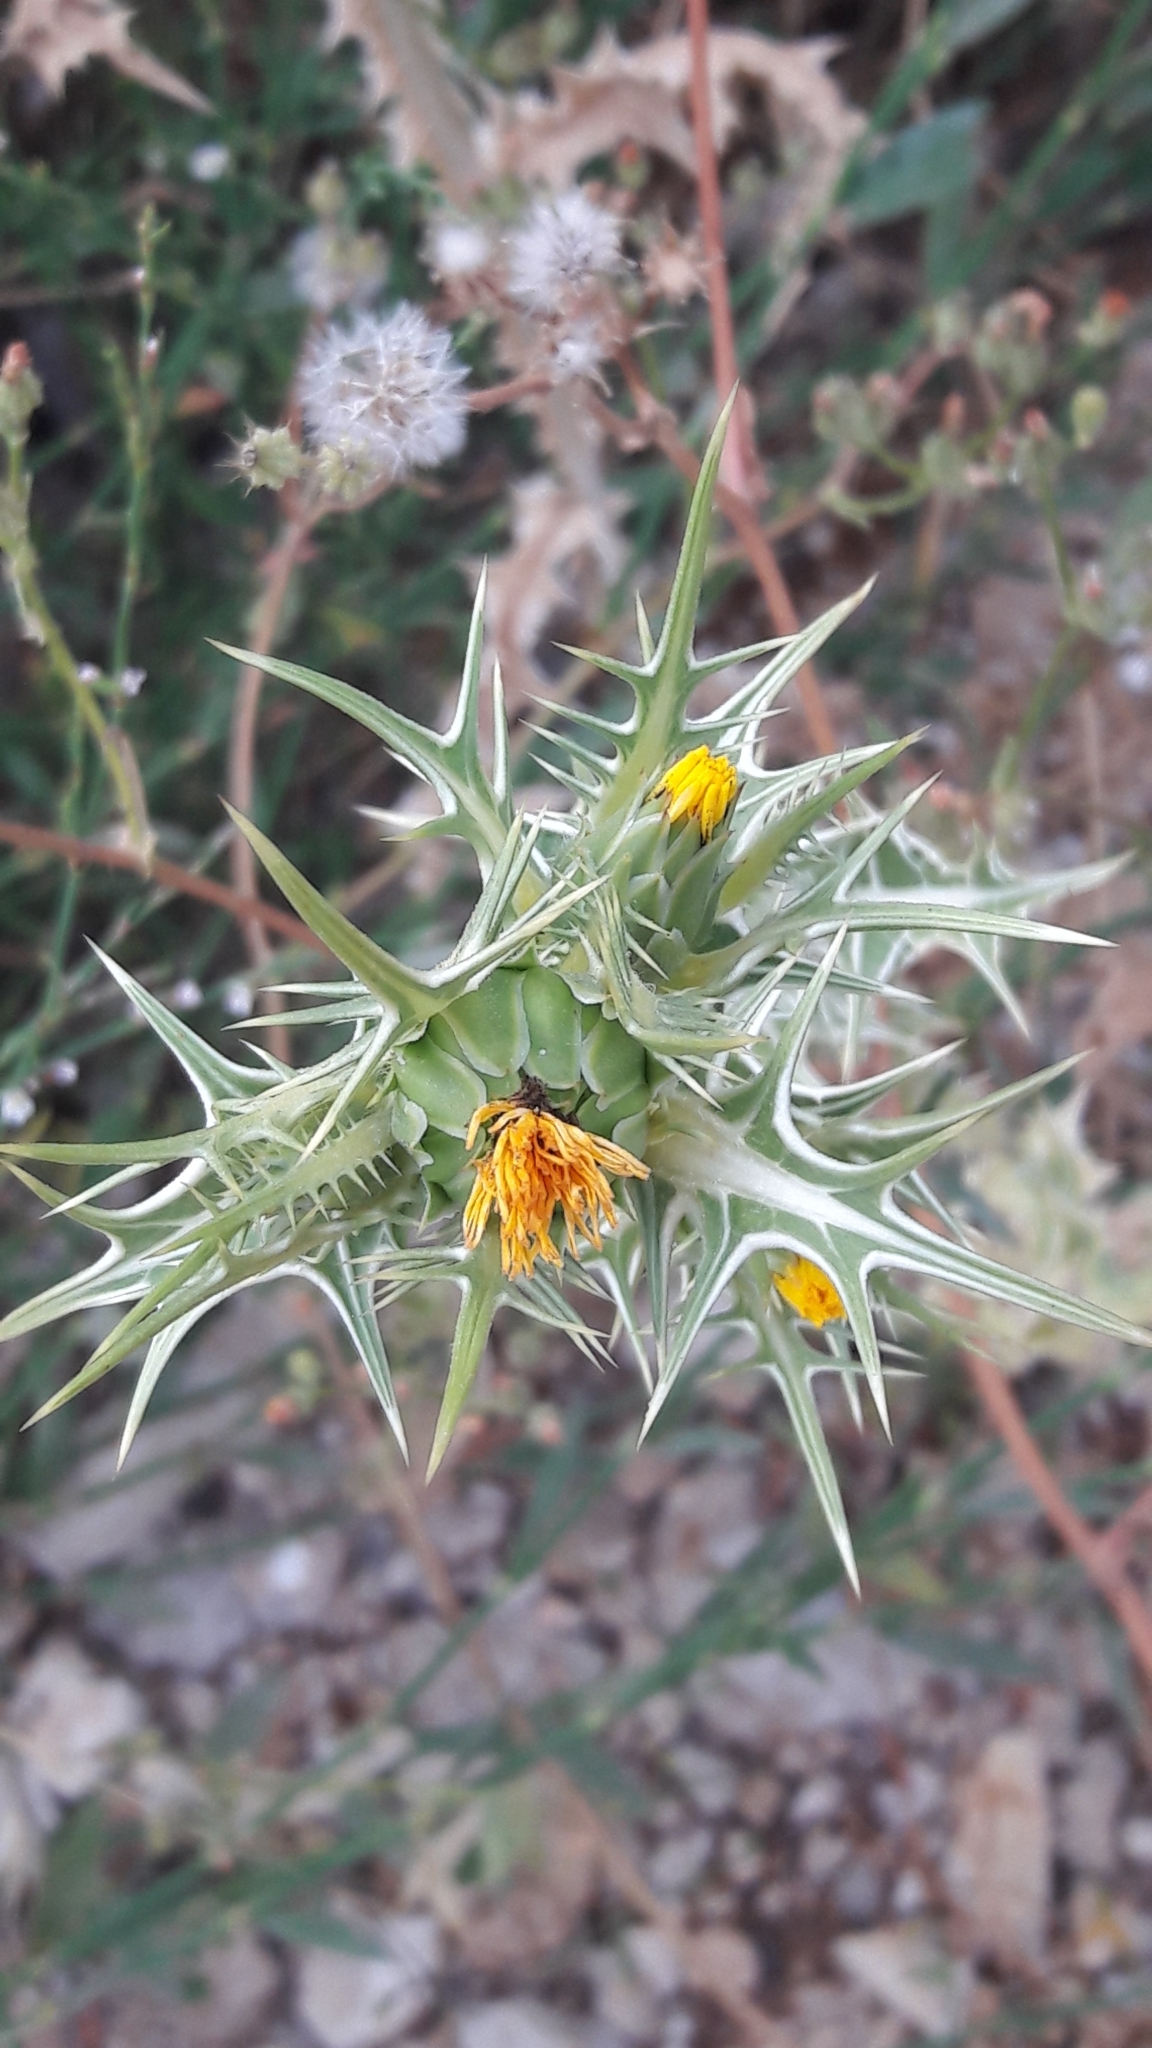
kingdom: Plantae
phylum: Tracheophyta
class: Magnoliopsida
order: Asterales
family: Asteraceae
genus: Scolymus
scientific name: Scolymus maculatus
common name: Spotted thistle
